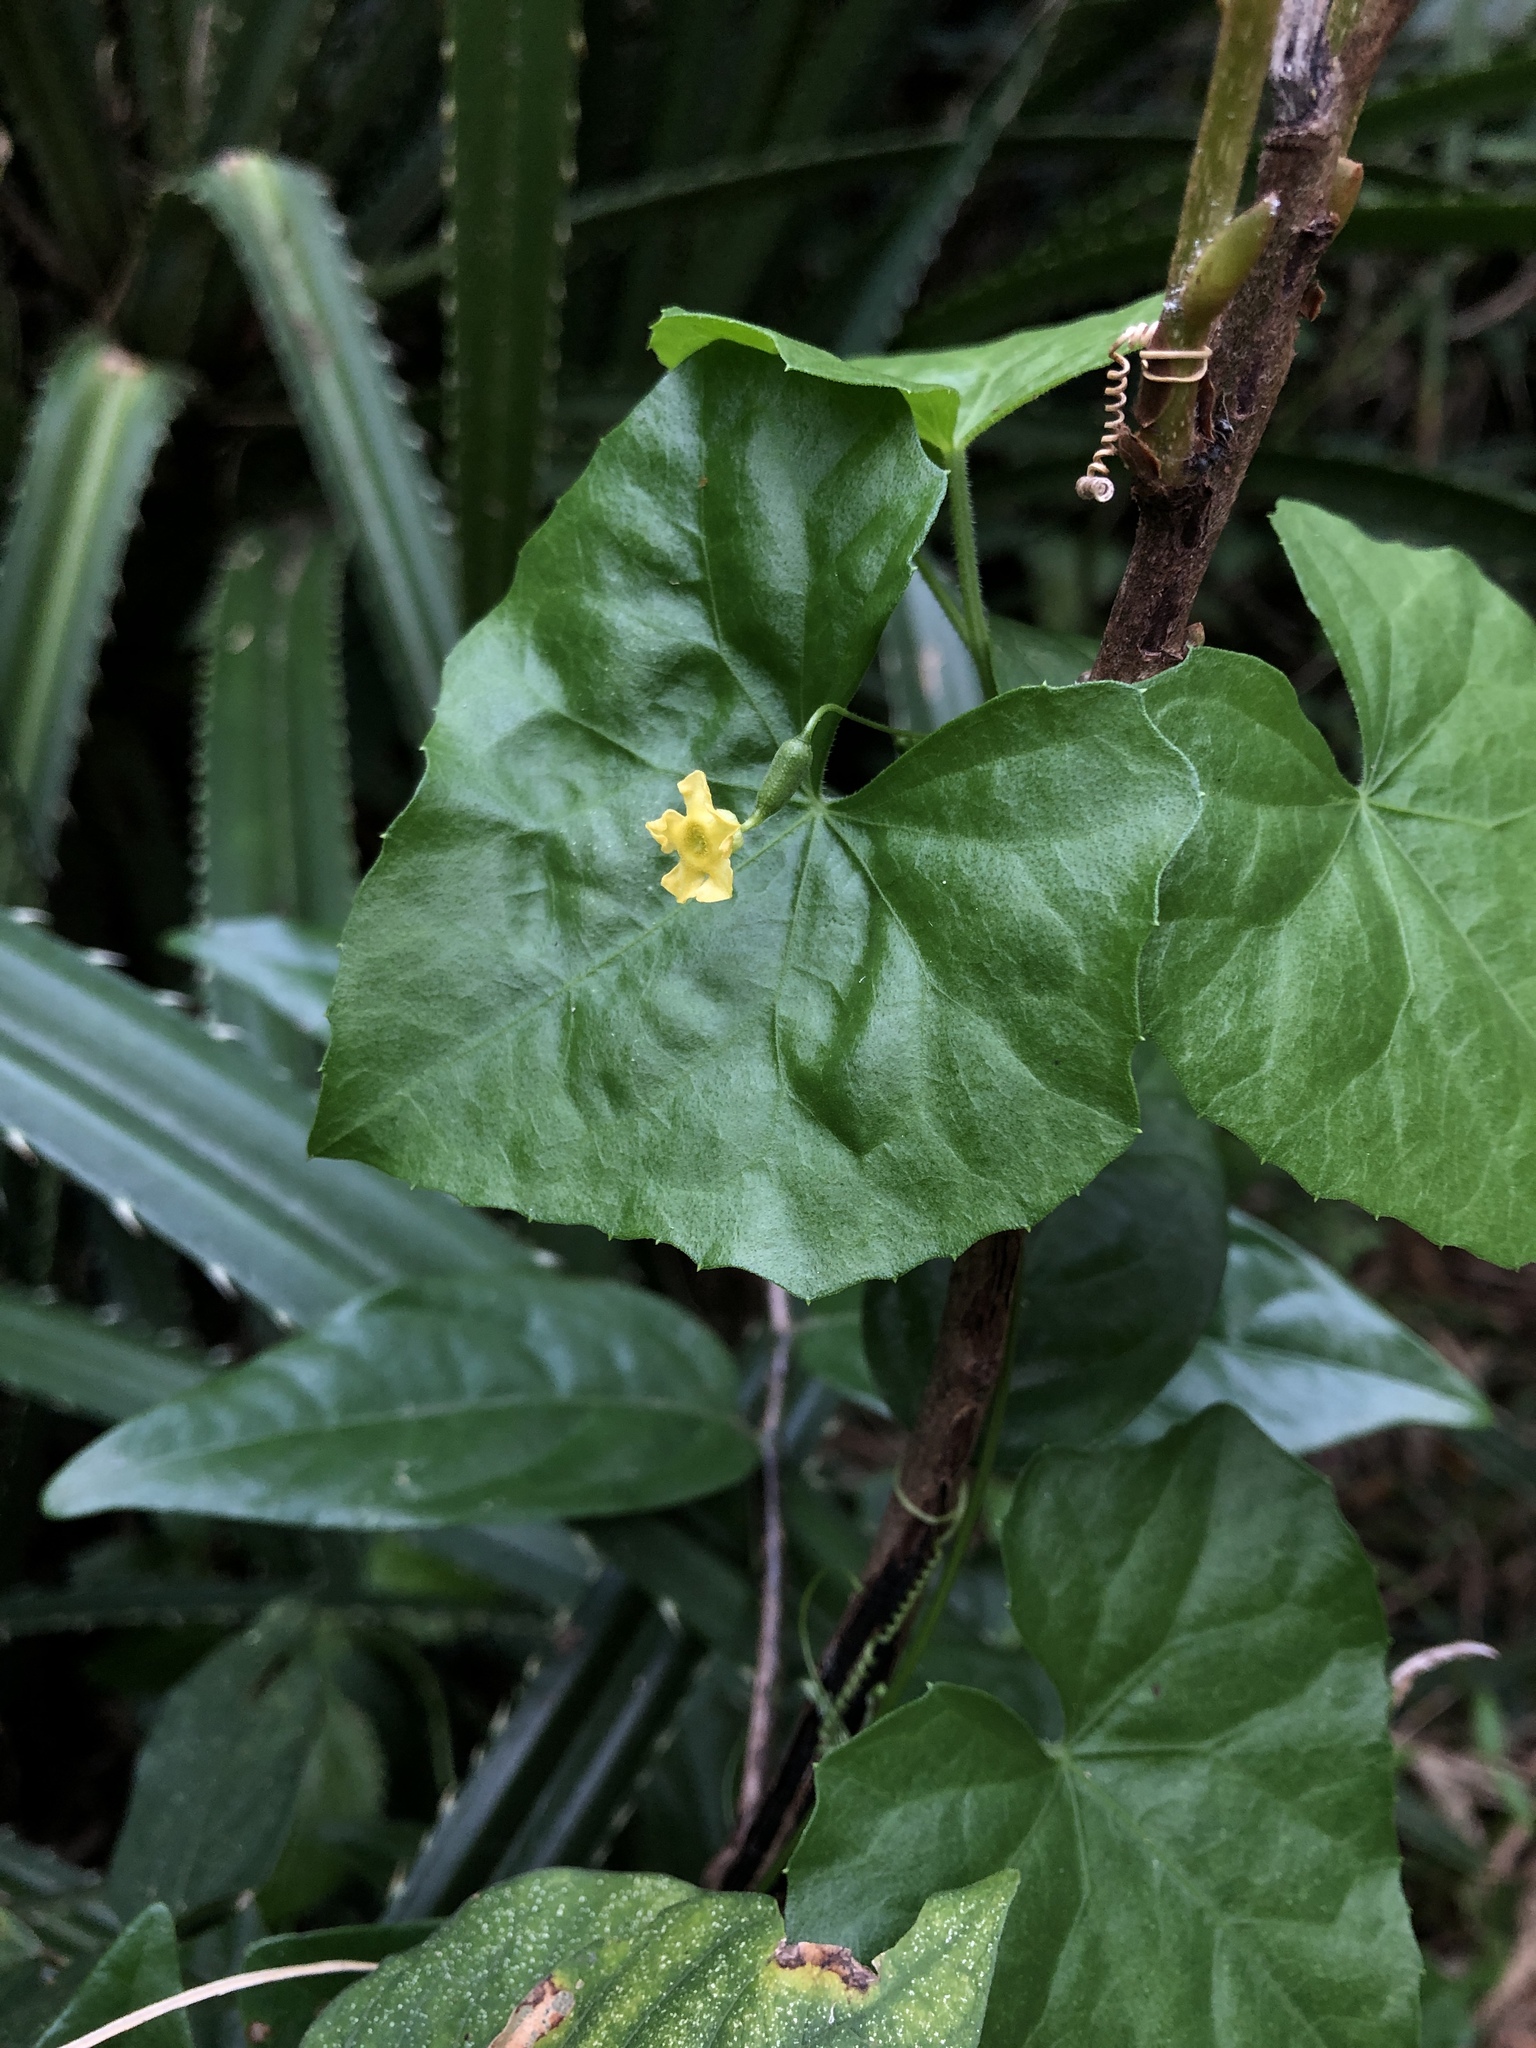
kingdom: Plantae
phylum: Tracheophyta
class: Magnoliopsida
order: Cucurbitales
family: Cucurbitaceae
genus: Melothria
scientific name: Melothria pendula
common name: Creeping-cucumber
